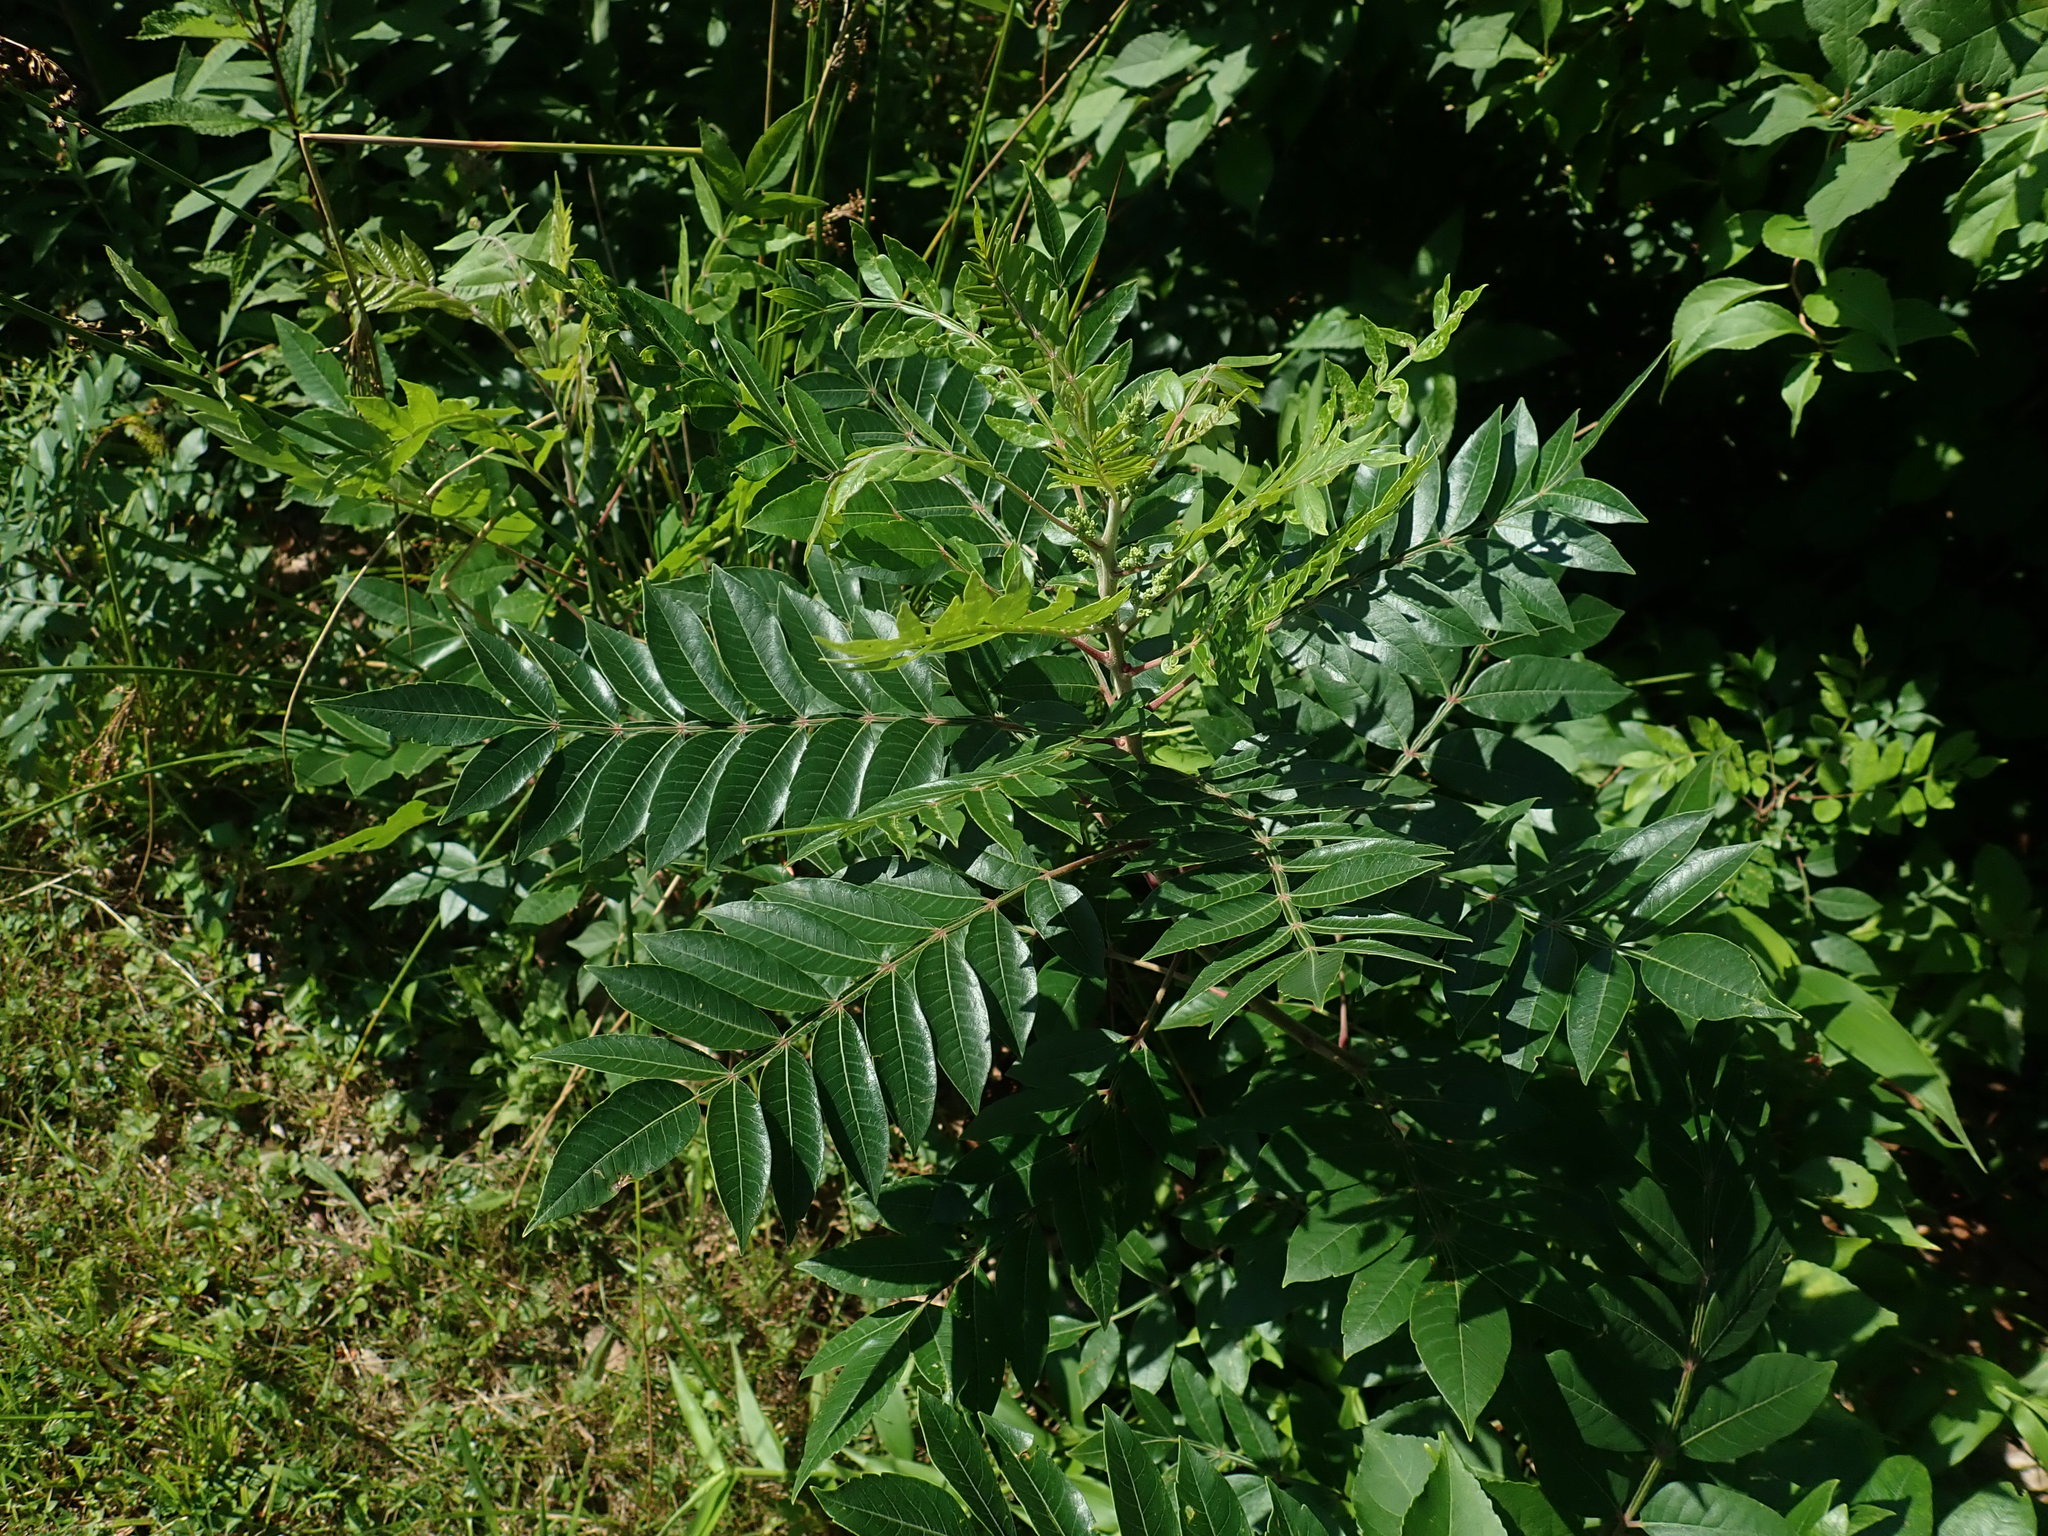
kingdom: Plantae
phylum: Tracheophyta
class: Magnoliopsida
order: Sapindales
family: Anacardiaceae
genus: Rhus
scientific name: Rhus copallina
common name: Shining sumac
